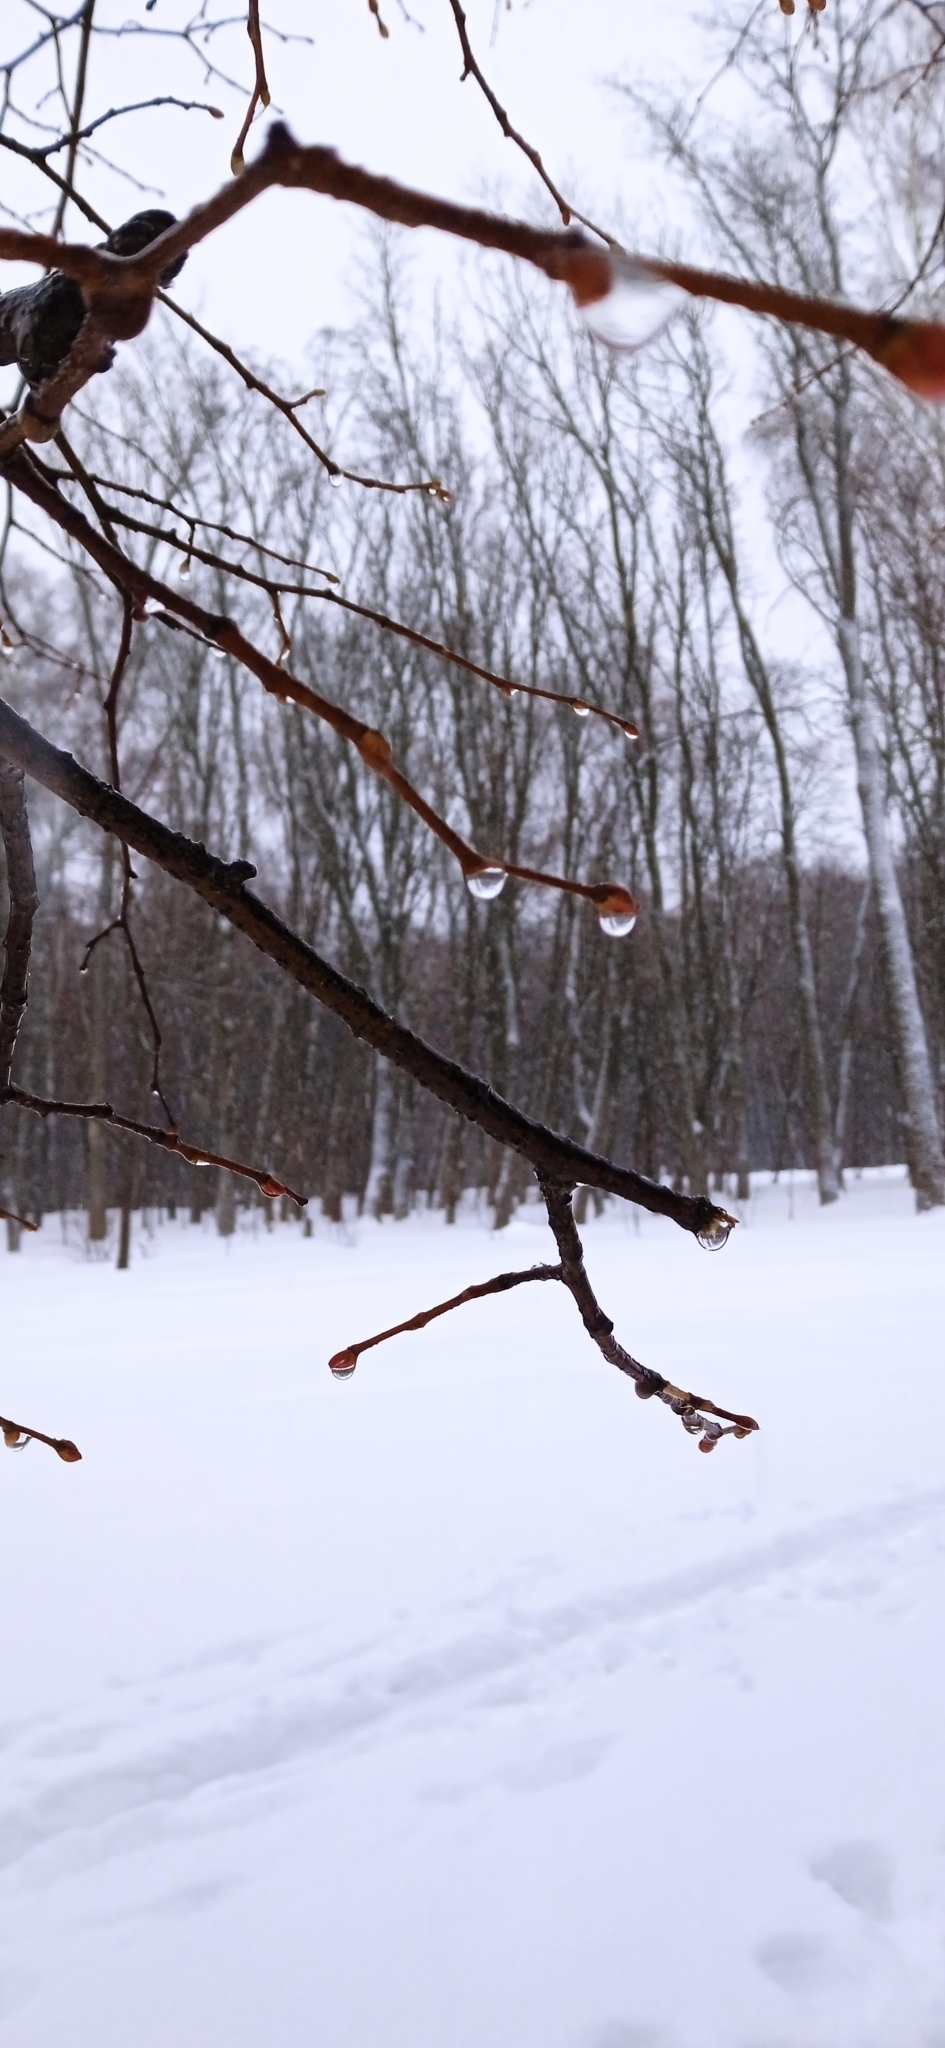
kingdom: Plantae
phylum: Tracheophyta
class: Magnoliopsida
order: Malvales
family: Malvaceae
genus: Tilia
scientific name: Tilia cordata
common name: Small-leaved lime
